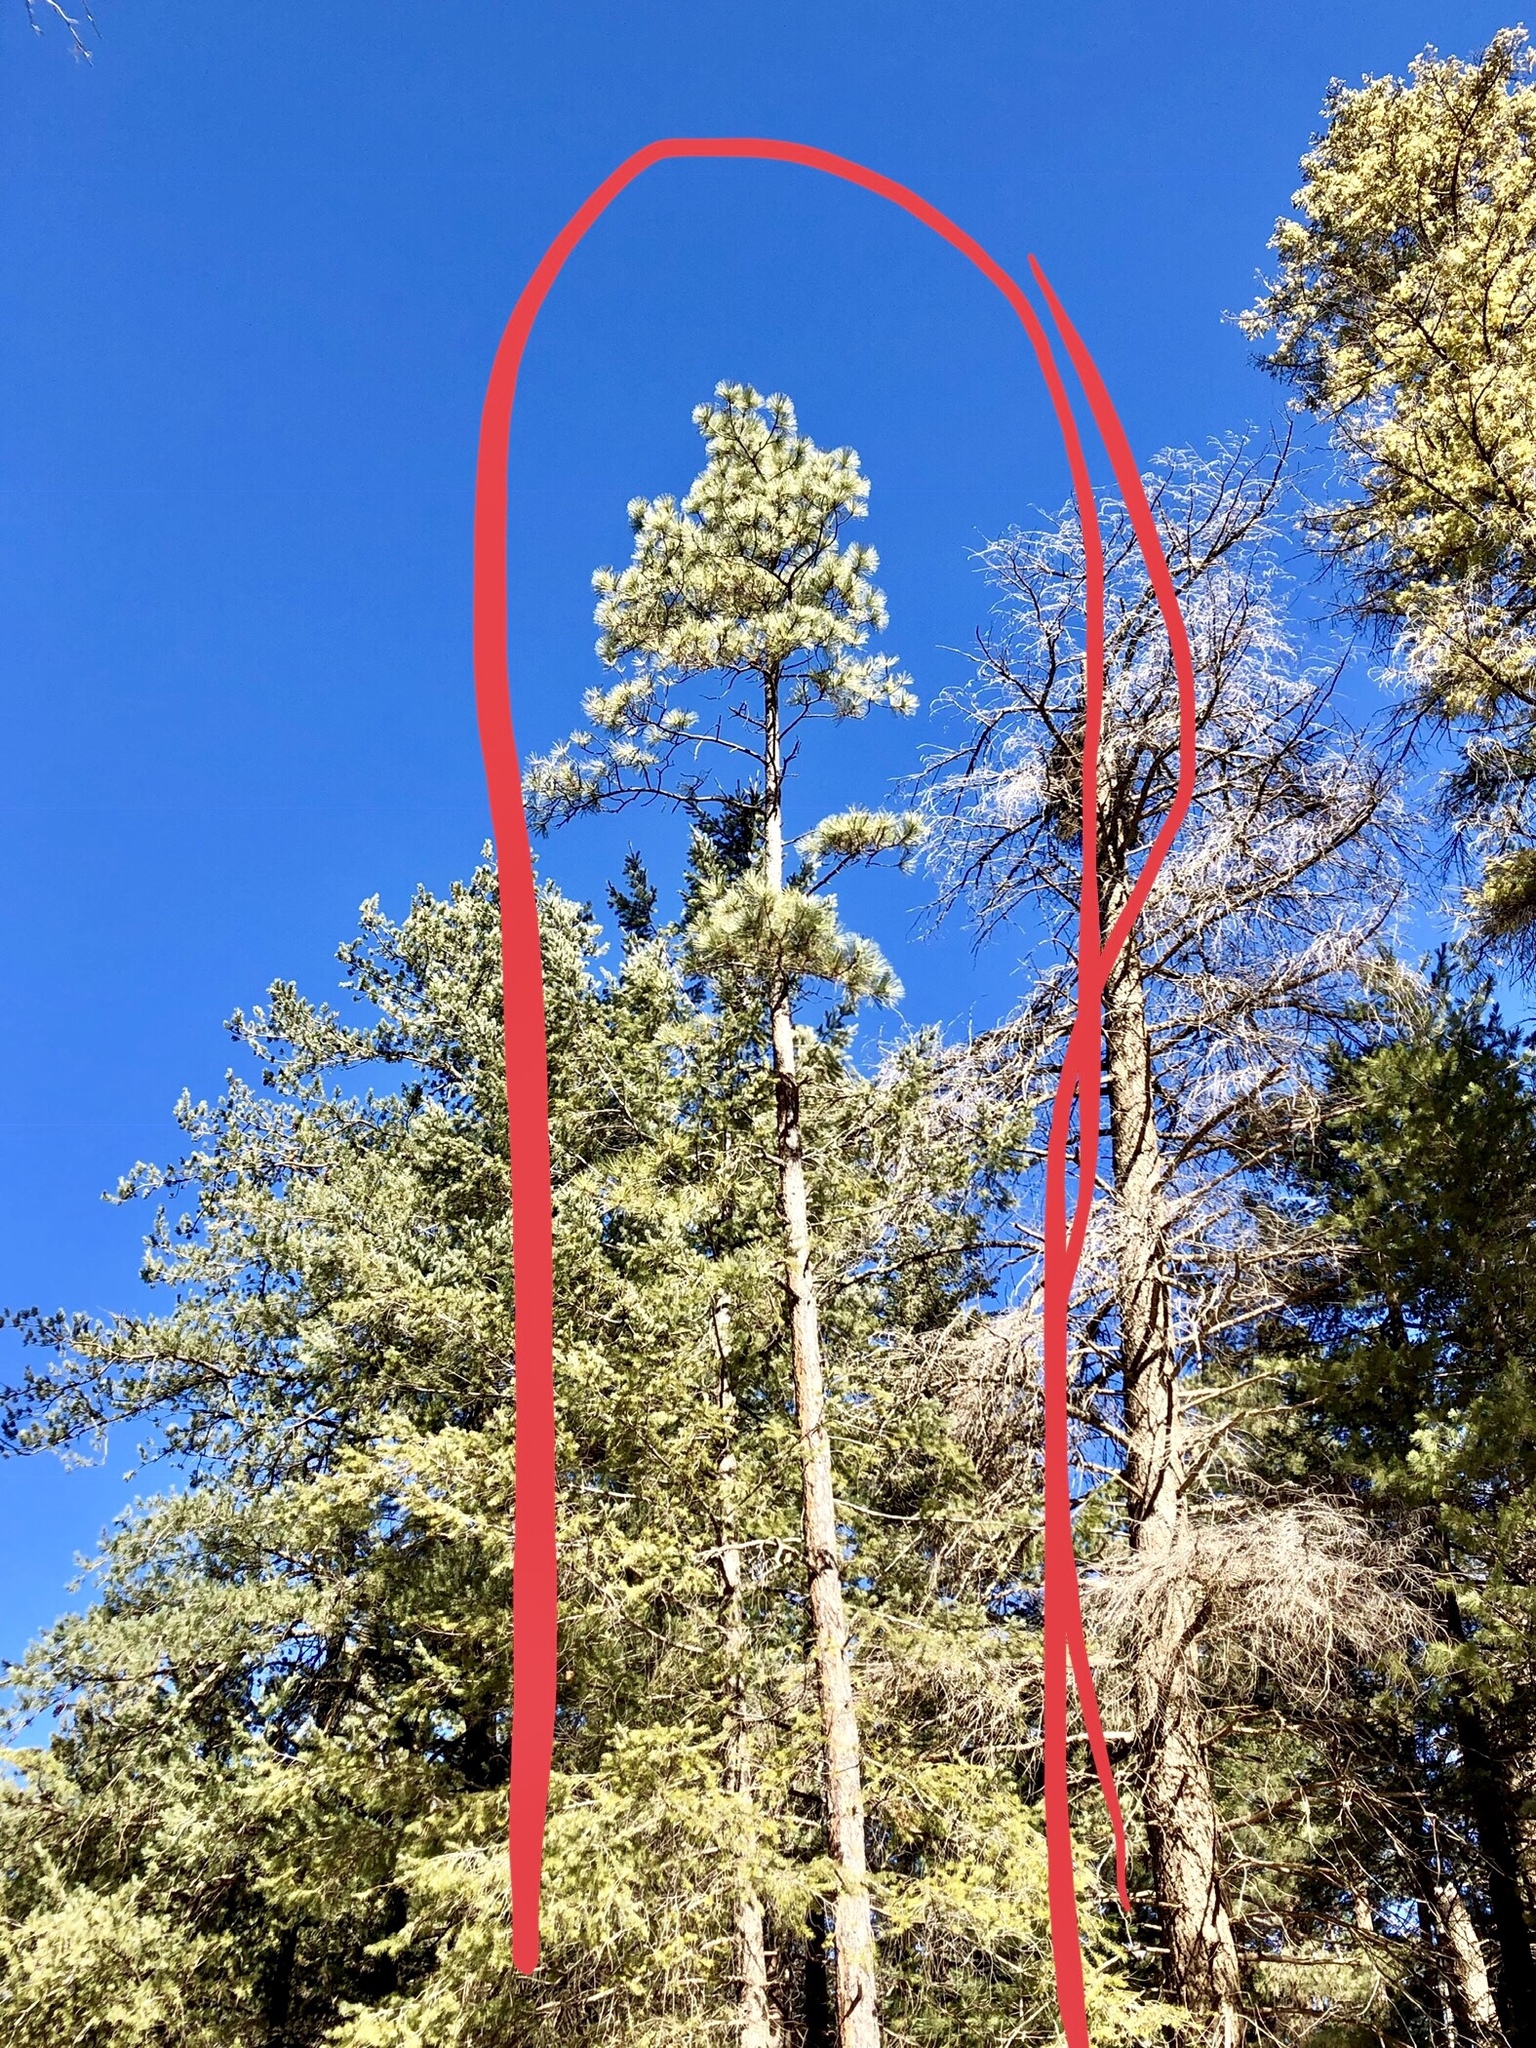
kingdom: Plantae
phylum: Tracheophyta
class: Pinopsida
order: Pinales
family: Pinaceae
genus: Pinus
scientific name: Pinus ponderosa
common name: Western yellow-pine
